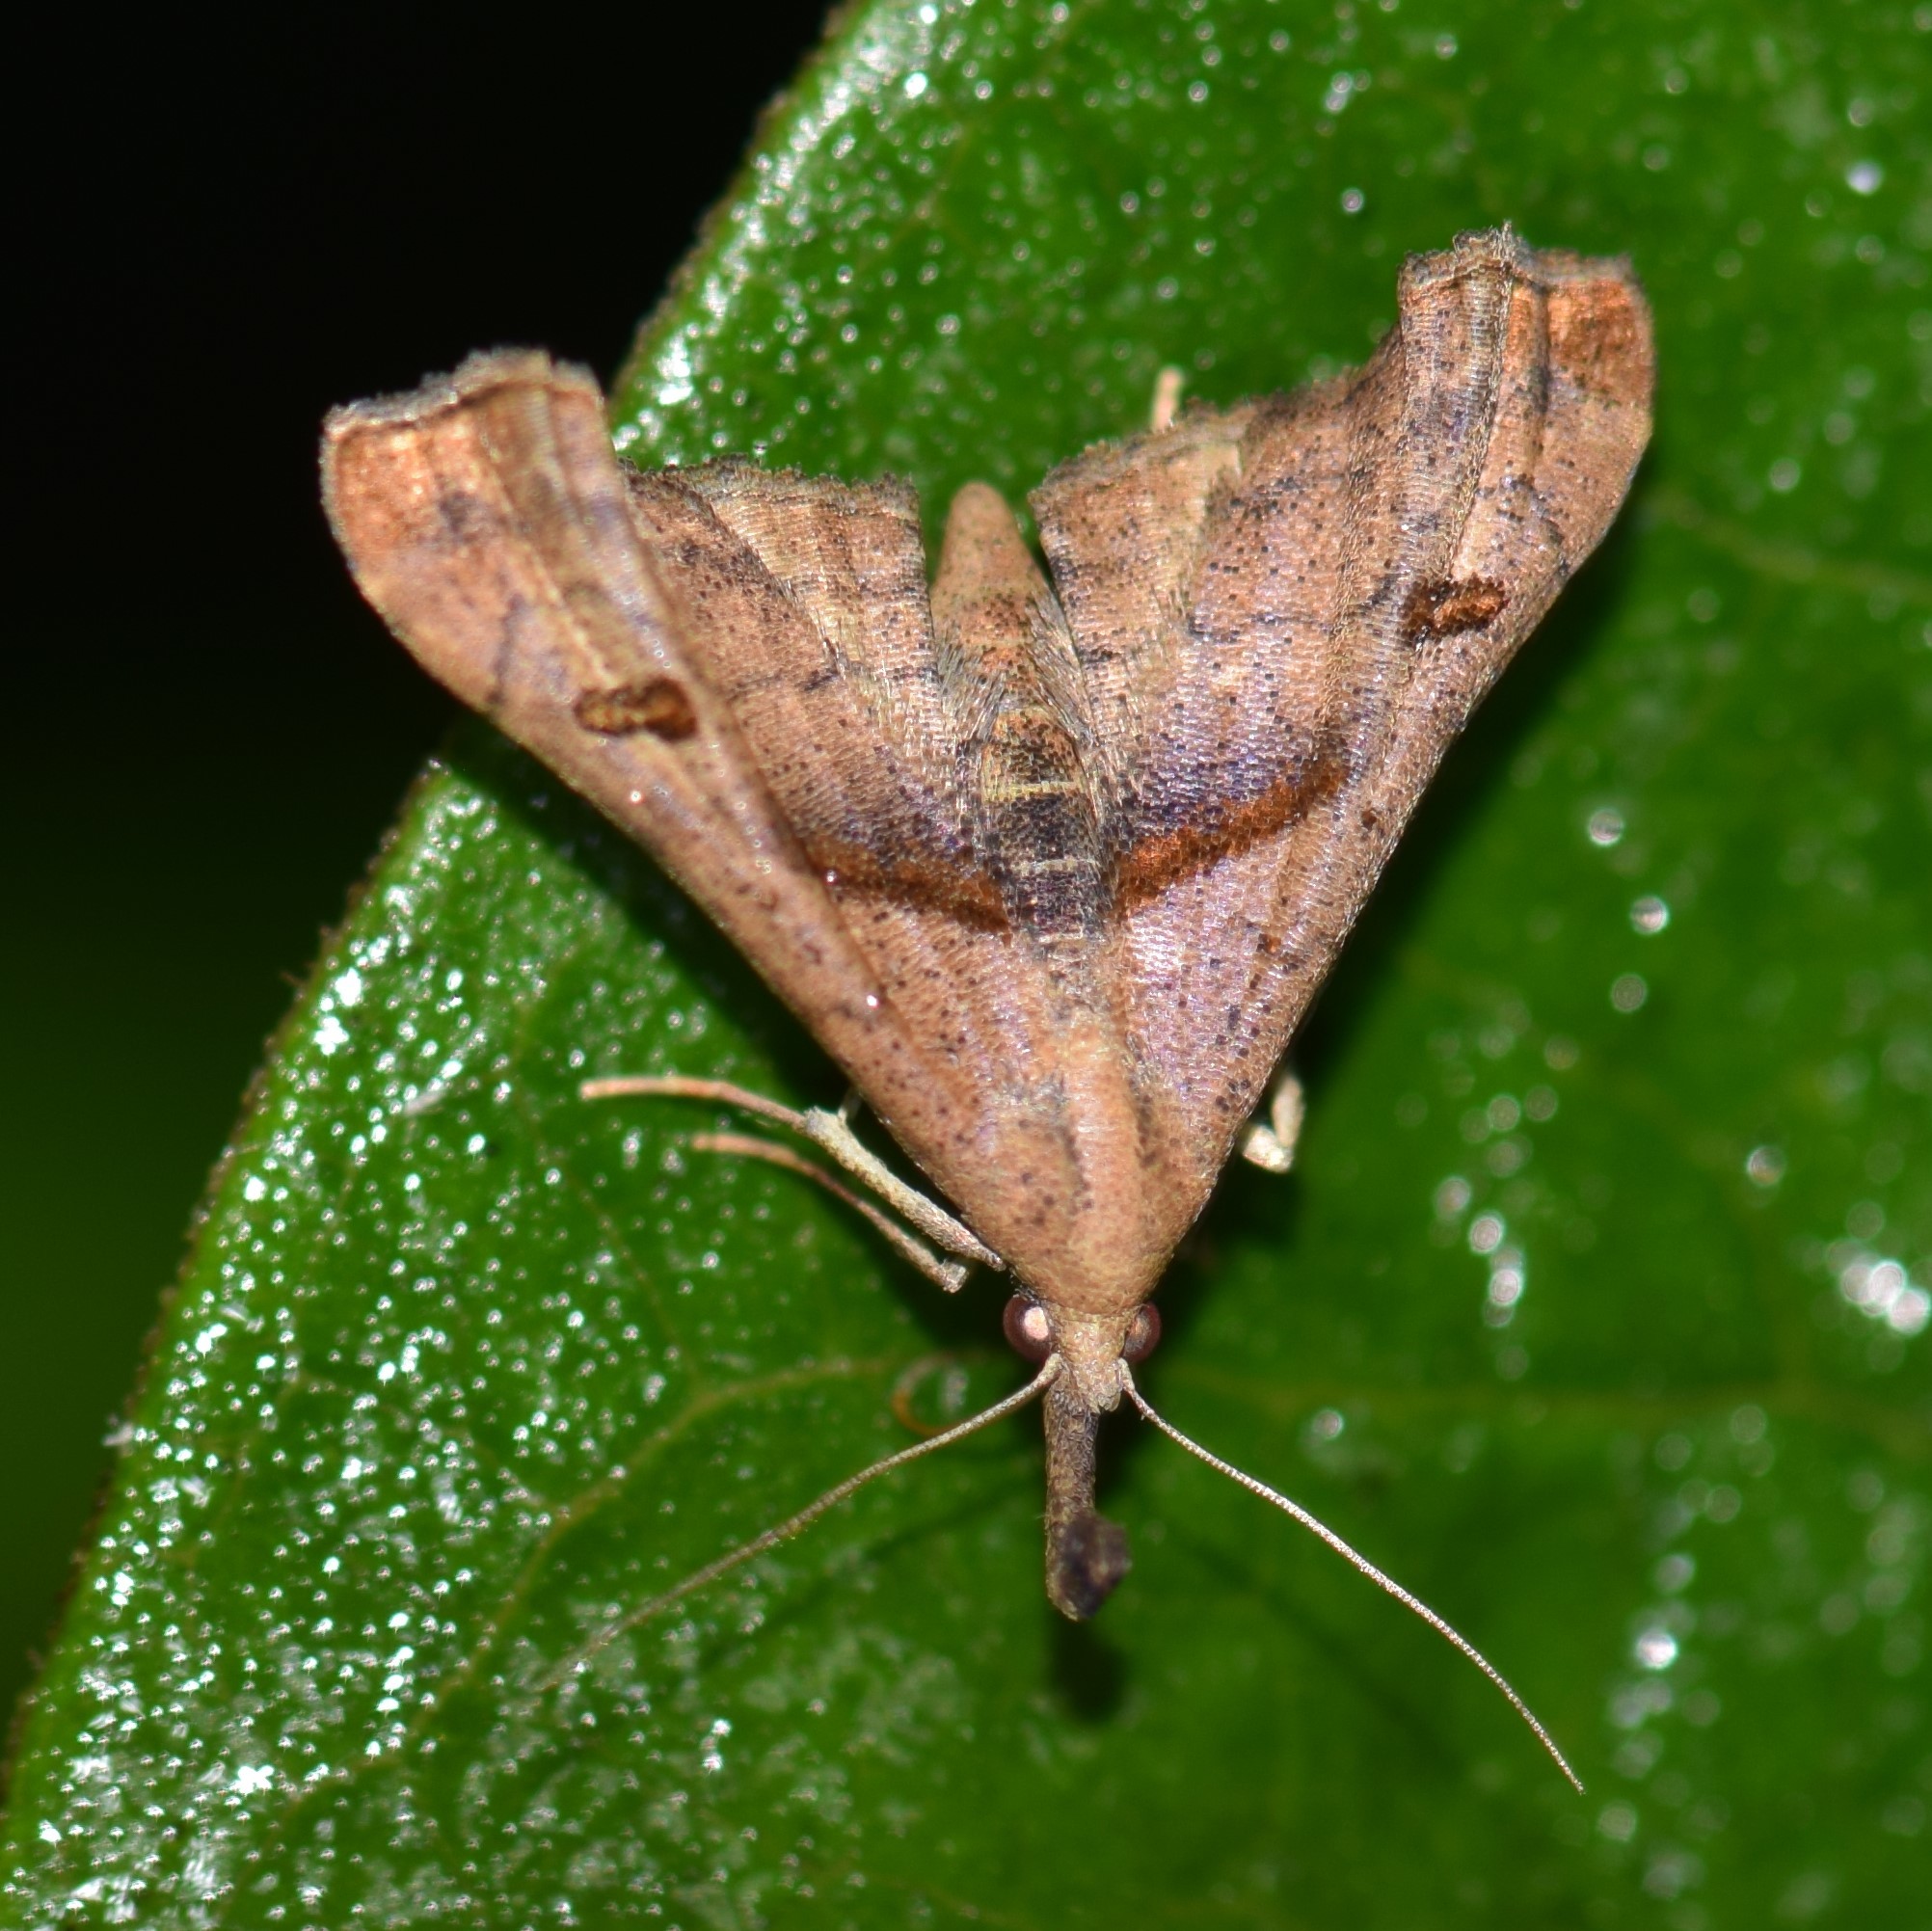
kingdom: Animalia
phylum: Arthropoda
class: Insecta
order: Lepidoptera
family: Erebidae
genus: Palthis
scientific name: Palthis angulalis
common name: Dark-spotted palthis moth
